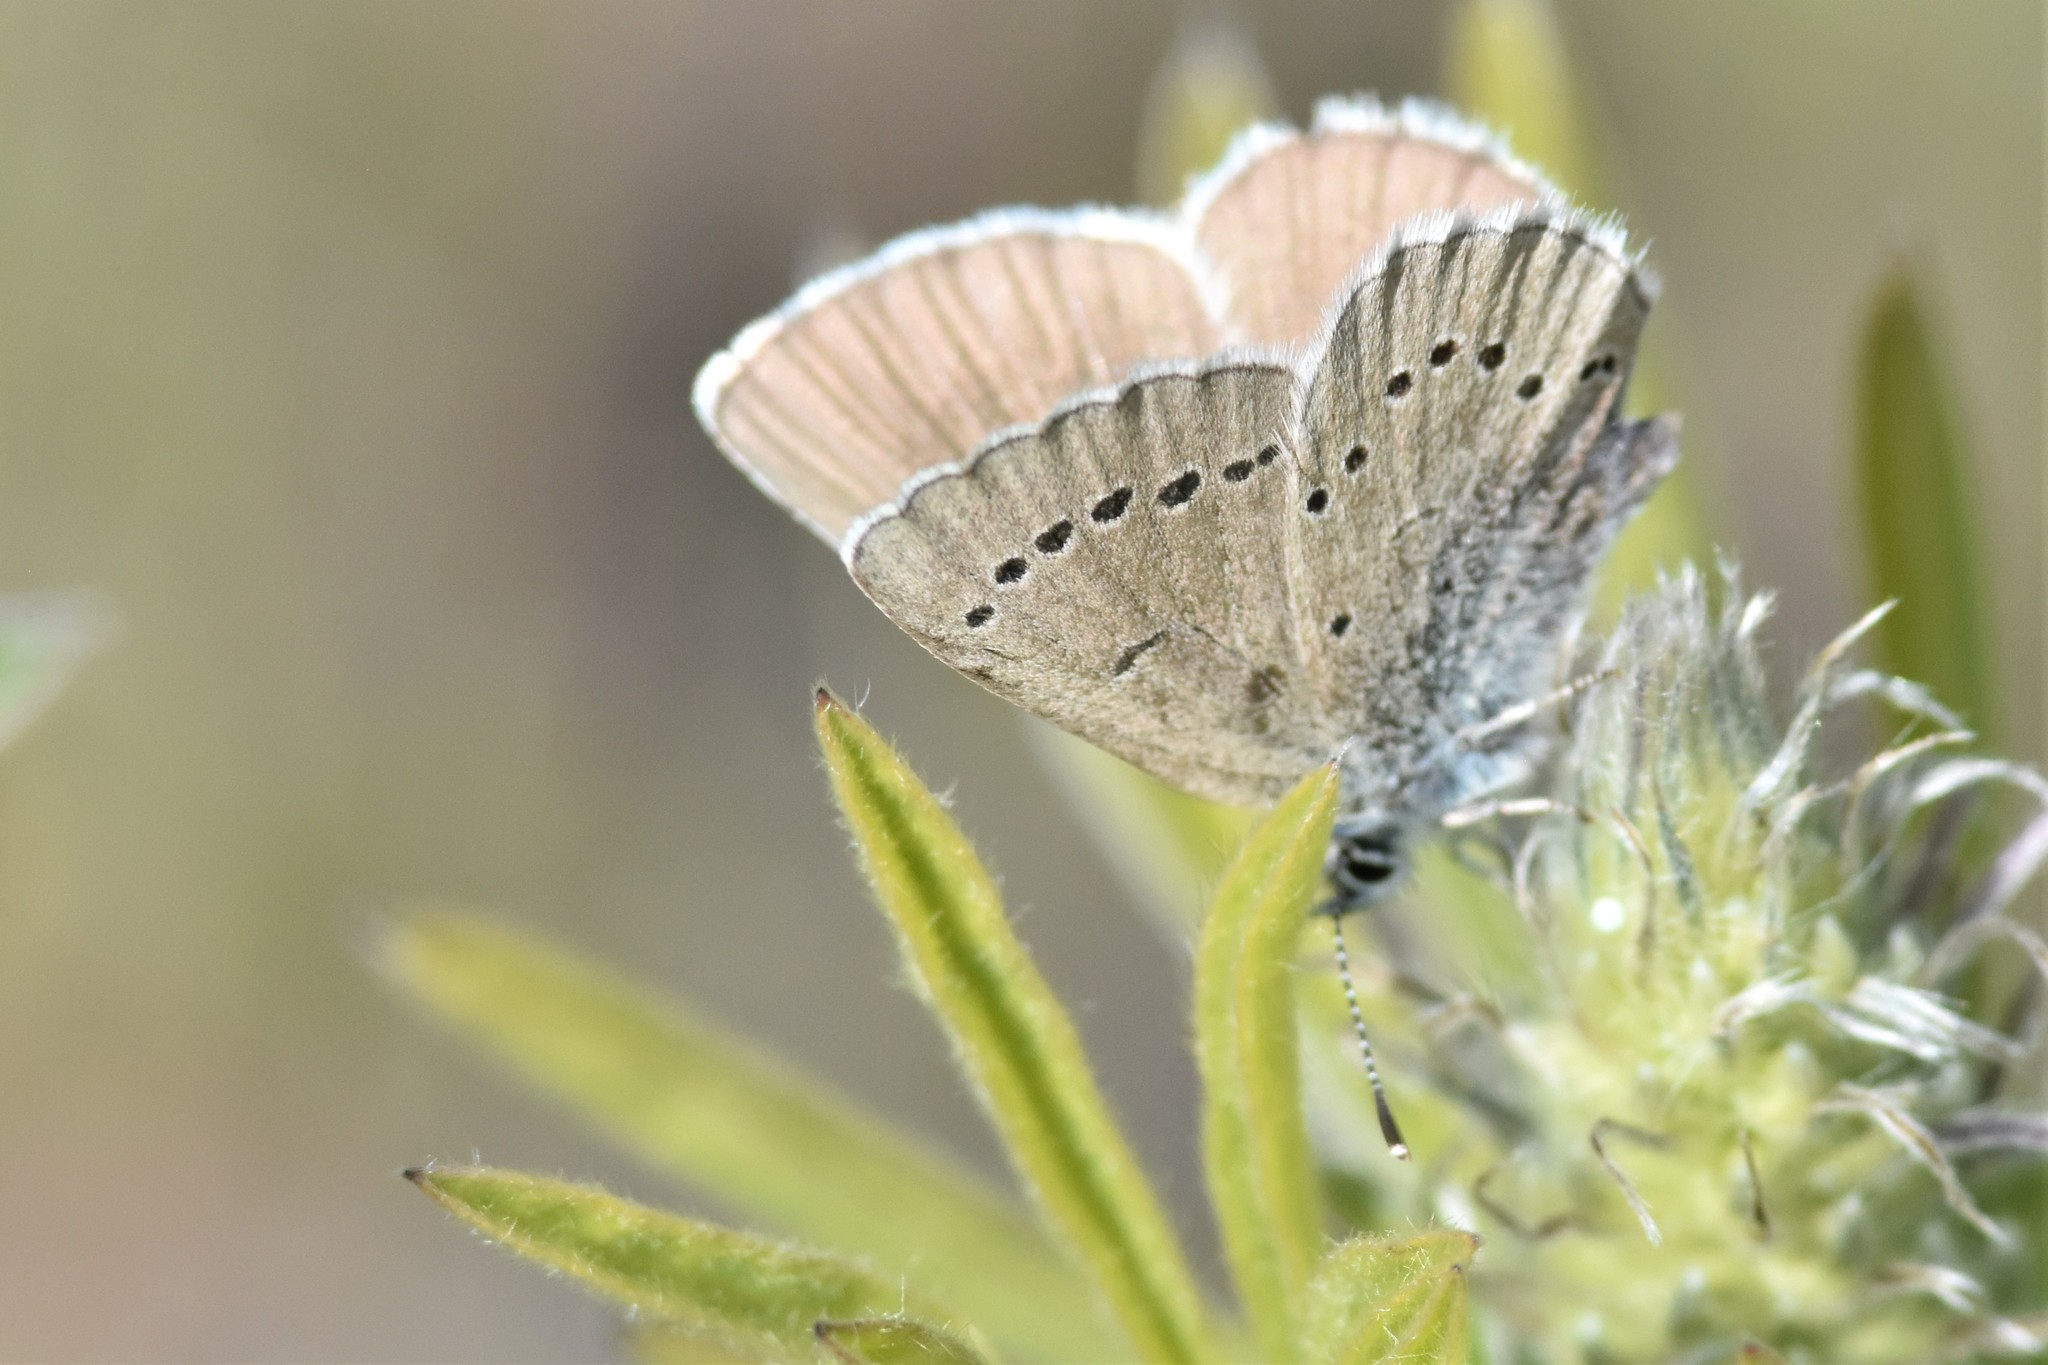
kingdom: Animalia
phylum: Arthropoda
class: Insecta
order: Lepidoptera
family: Lycaenidae
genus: Glaucopsyche
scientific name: Glaucopsyche lygdamus
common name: Silvery blue
